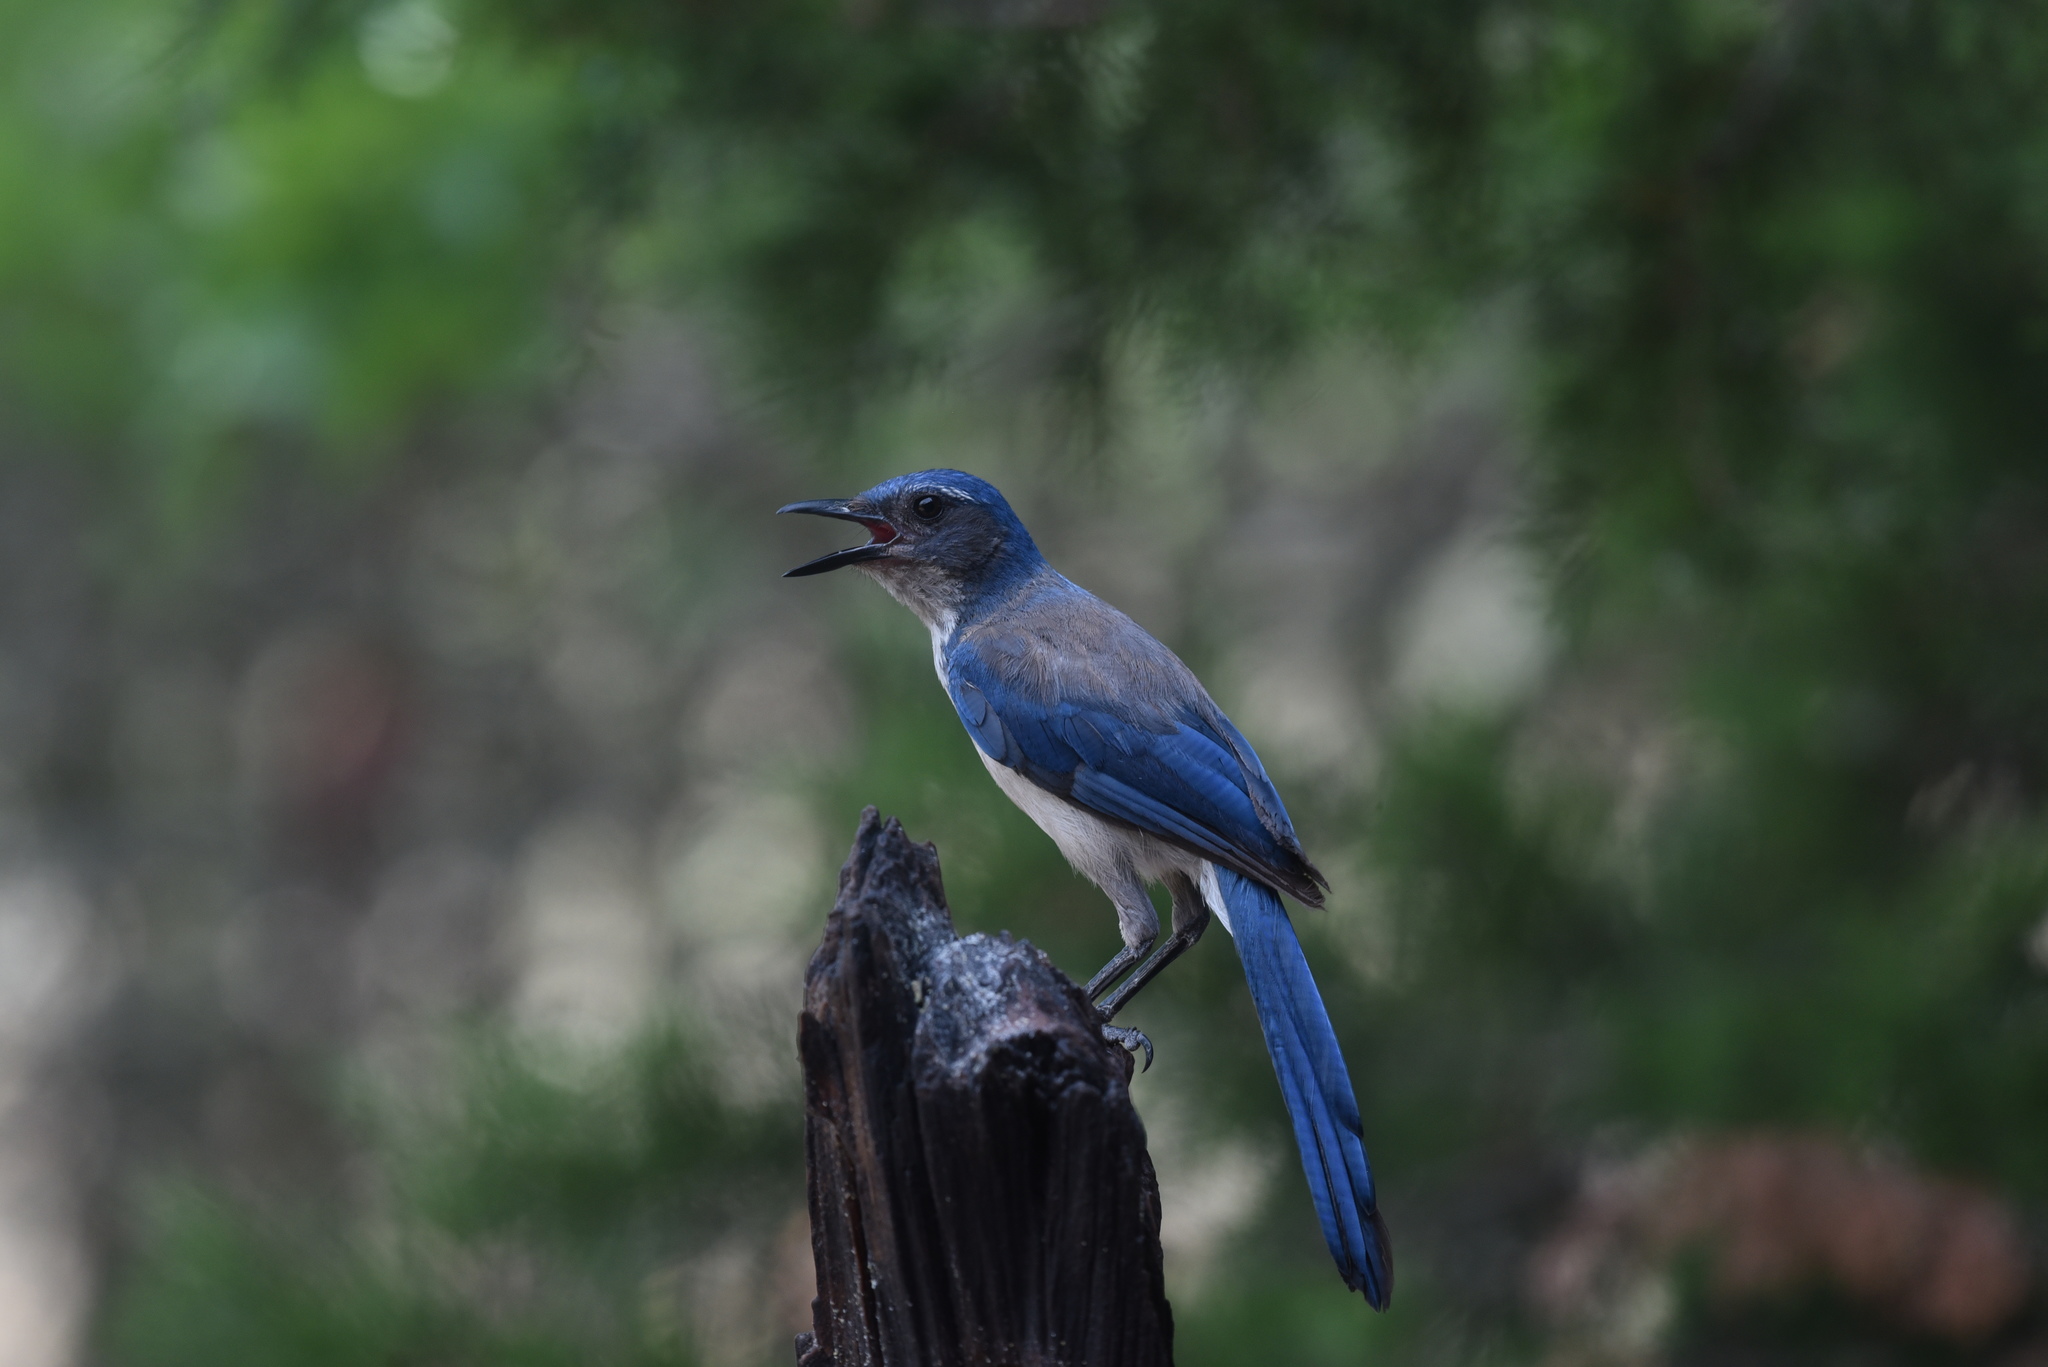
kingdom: Animalia
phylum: Chordata
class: Aves
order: Passeriformes
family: Corvidae
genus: Aphelocoma
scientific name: Aphelocoma woodhouseii
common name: Woodhouse's scrub-jay
